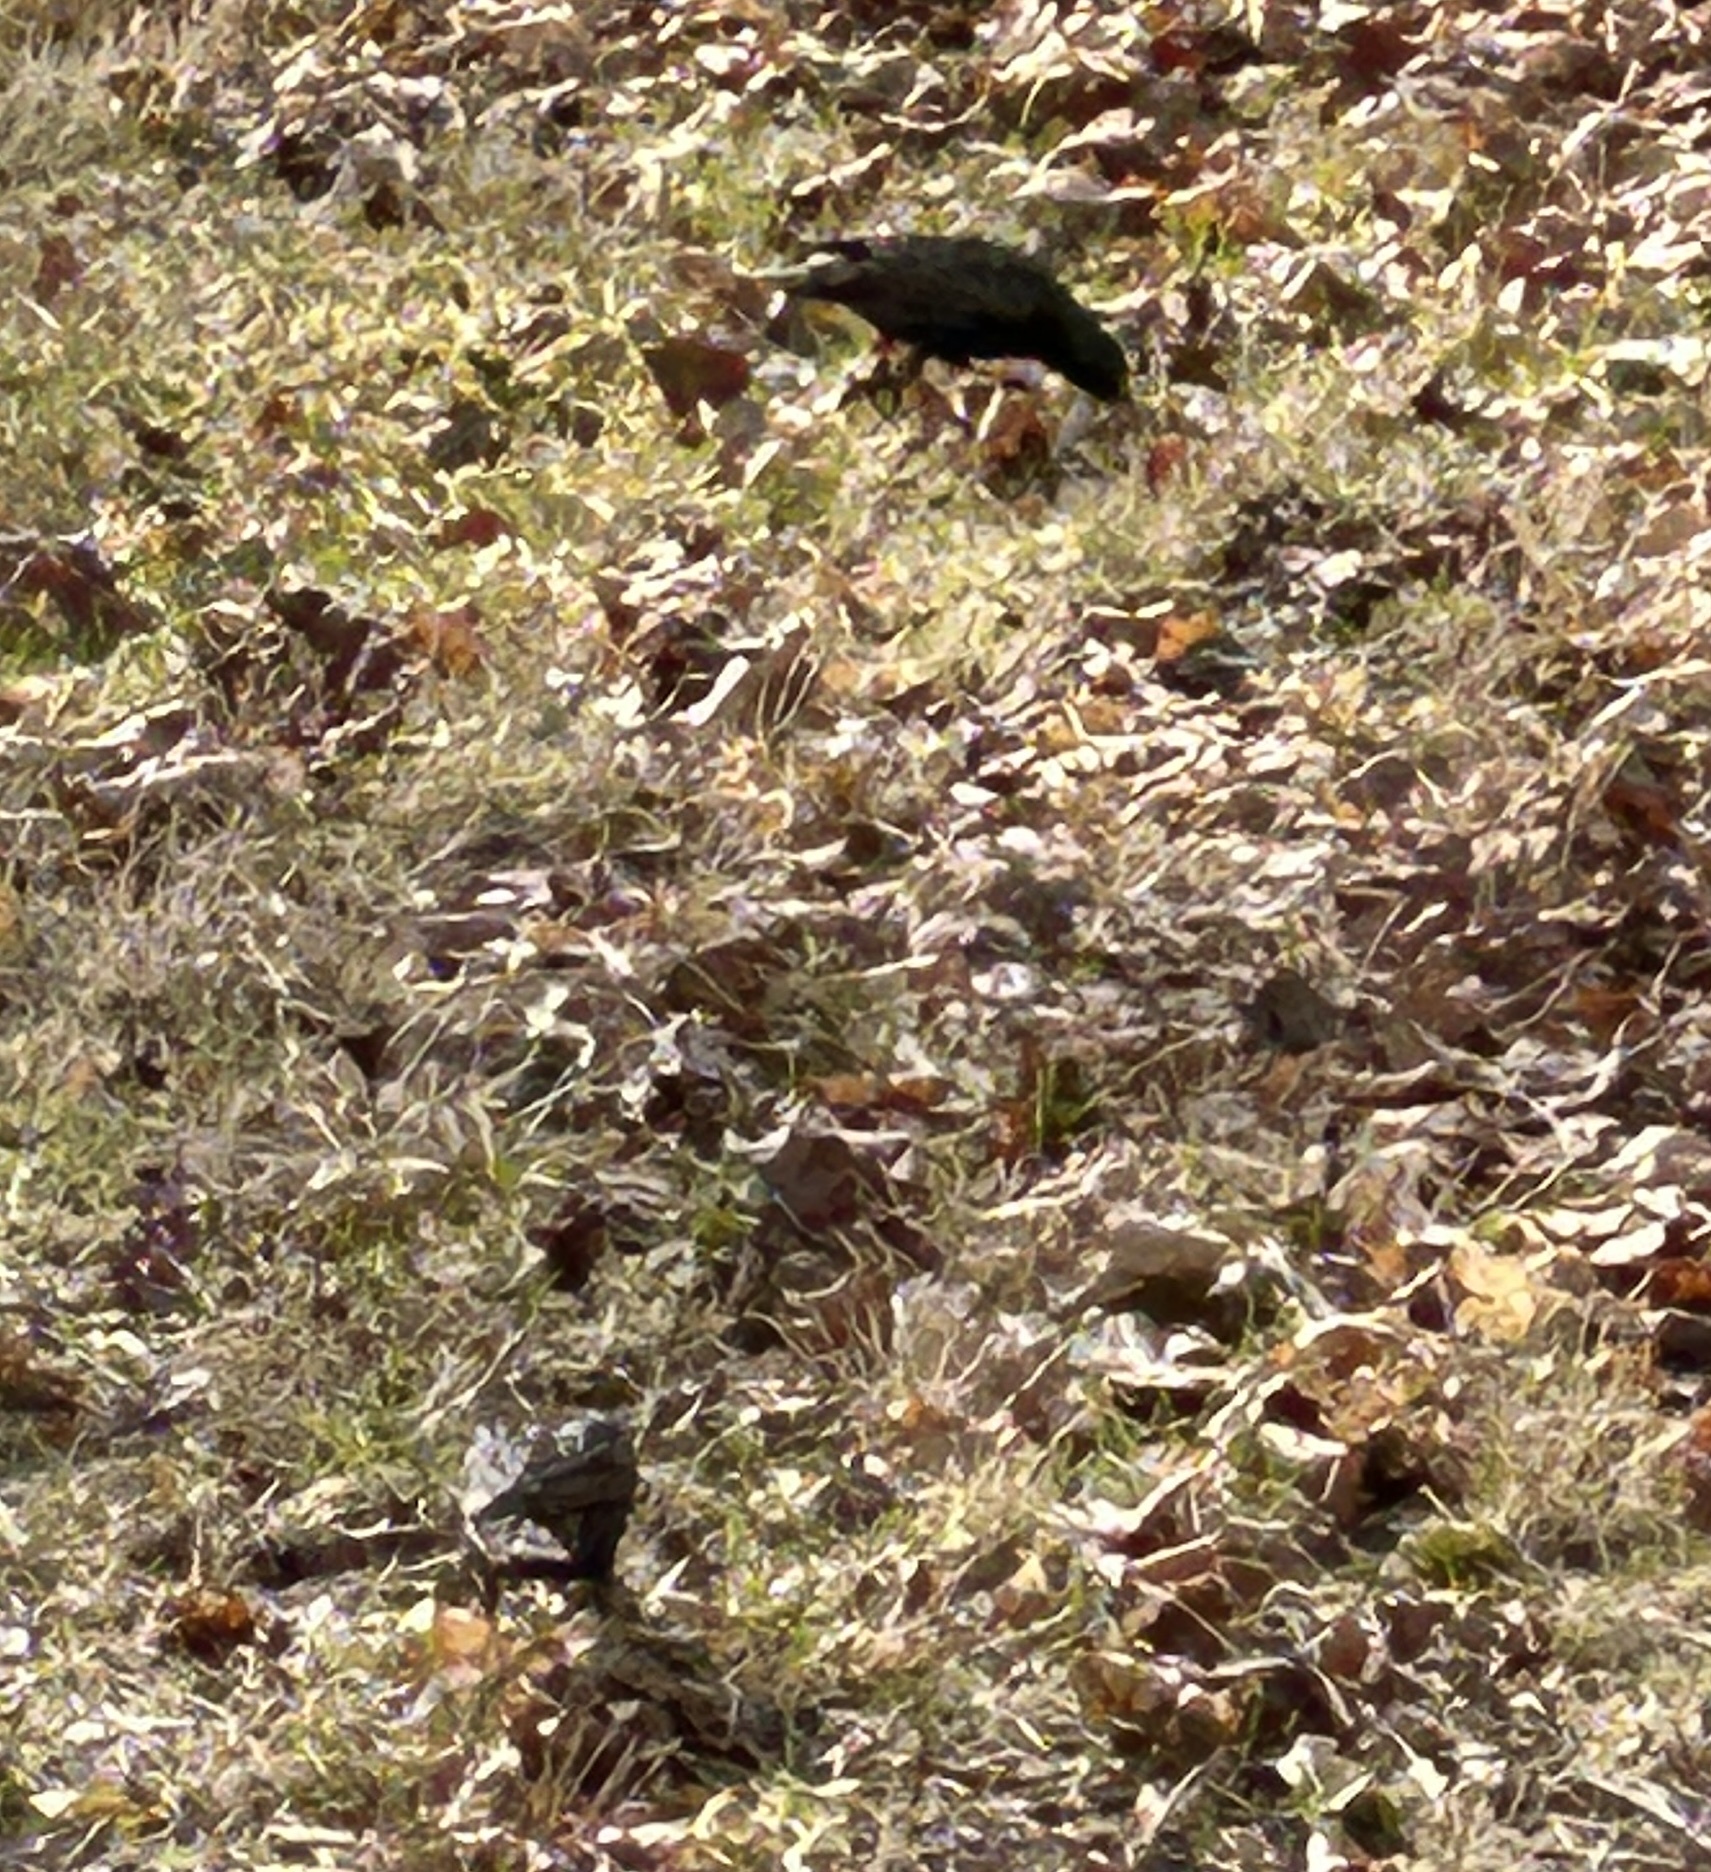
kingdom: Animalia
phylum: Chordata
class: Aves
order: Passeriformes
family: Sturnidae
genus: Sturnus
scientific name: Sturnus vulgaris
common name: Common starling
